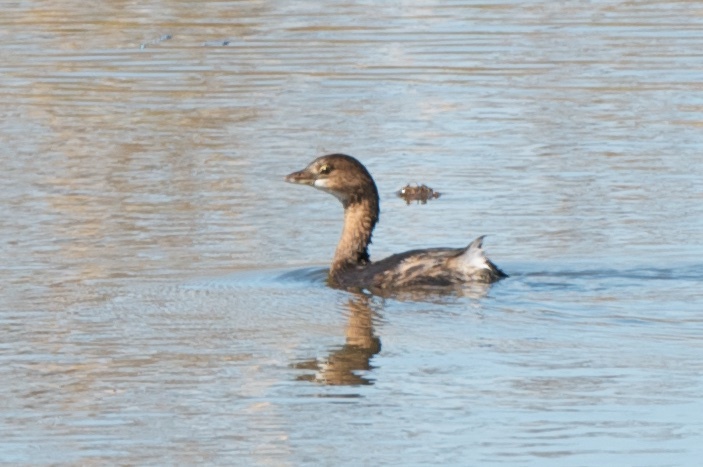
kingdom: Animalia
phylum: Chordata
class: Aves
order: Podicipediformes
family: Podicipedidae
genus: Podilymbus
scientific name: Podilymbus podiceps
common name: Pied-billed grebe
